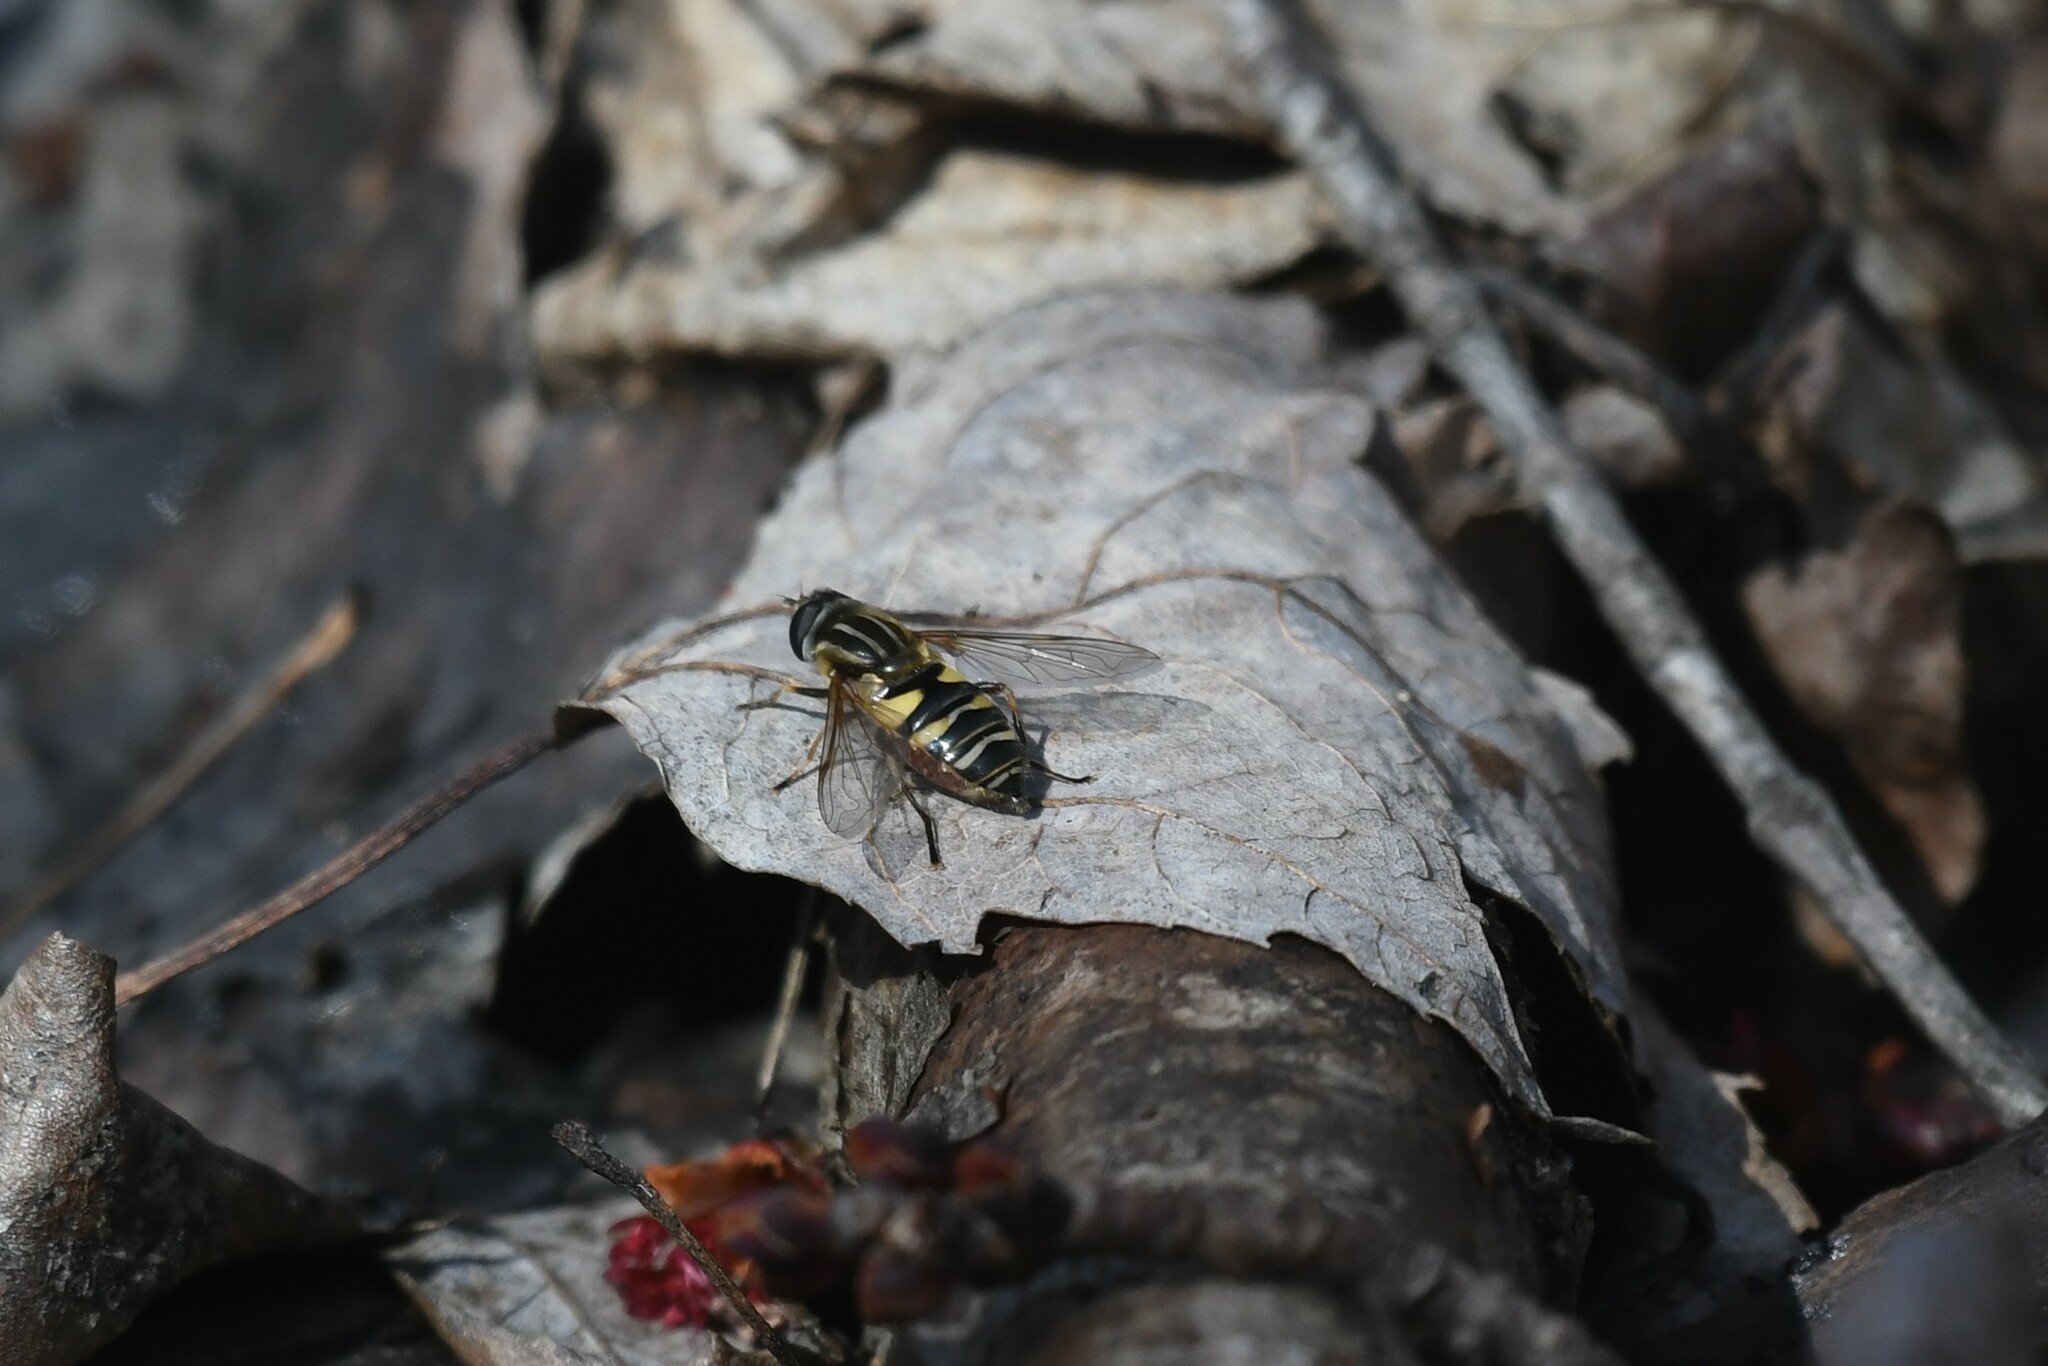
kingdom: Animalia
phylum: Arthropoda
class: Insecta
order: Diptera
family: Syrphidae
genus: Helophilus
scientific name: Helophilus fasciatus
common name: Narrow-headed marsh fly
